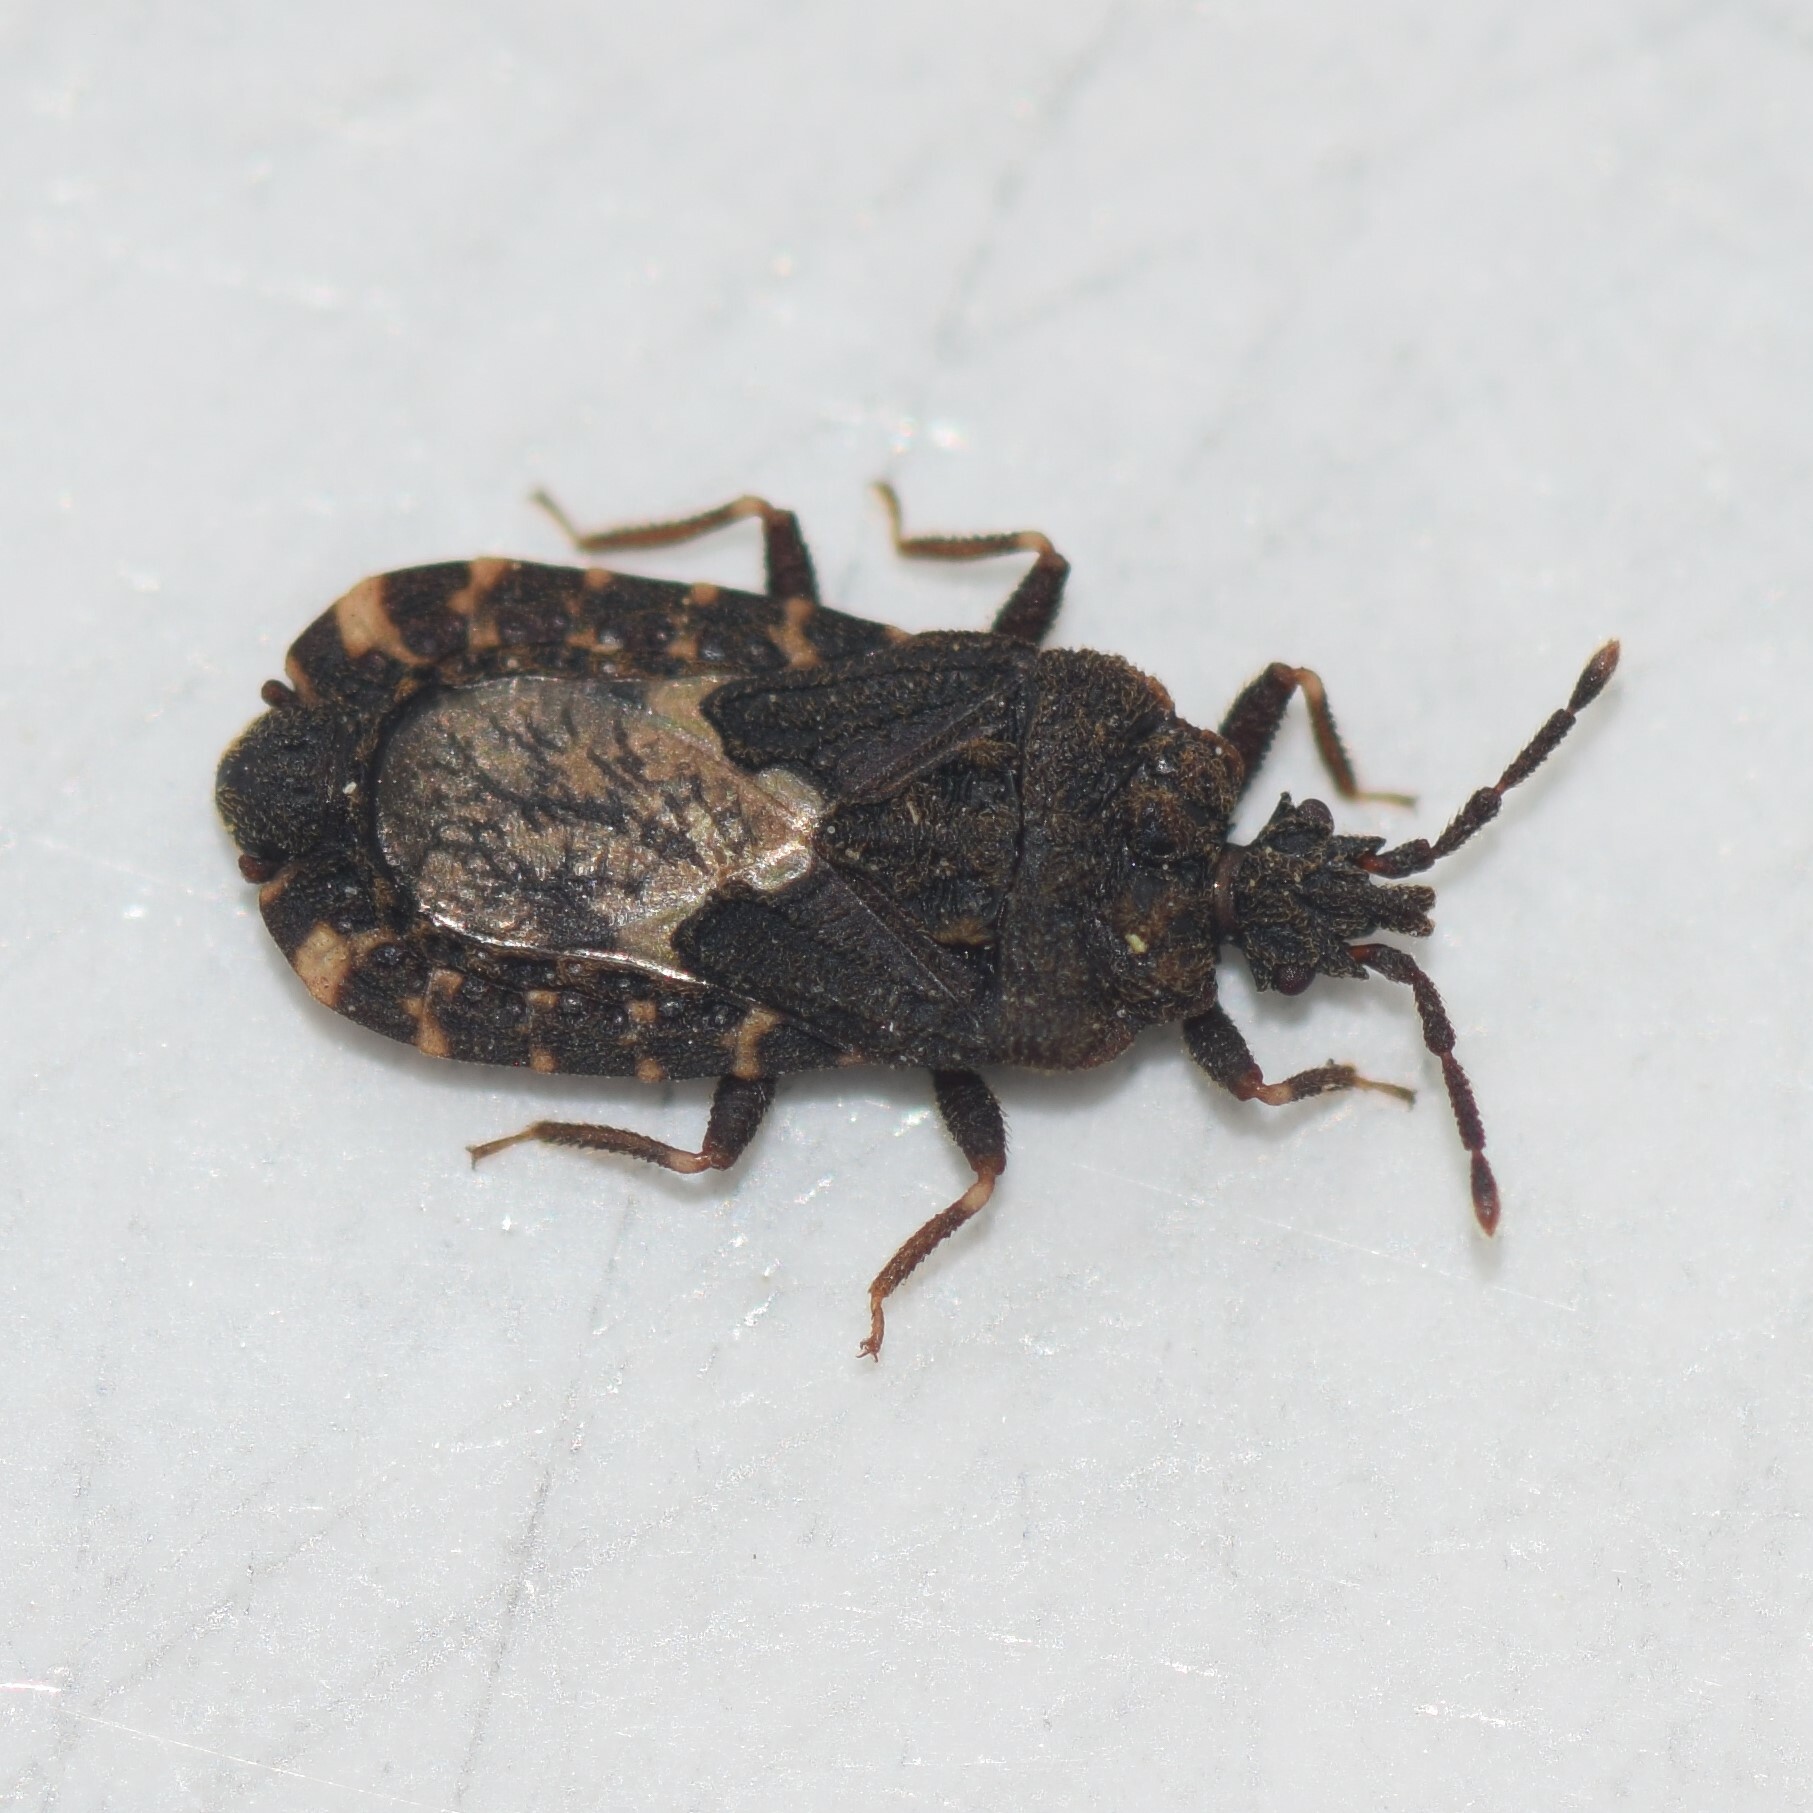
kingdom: Animalia
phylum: Arthropoda
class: Insecta
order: Hemiptera
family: Aradidae
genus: Mezira
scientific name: Mezira
